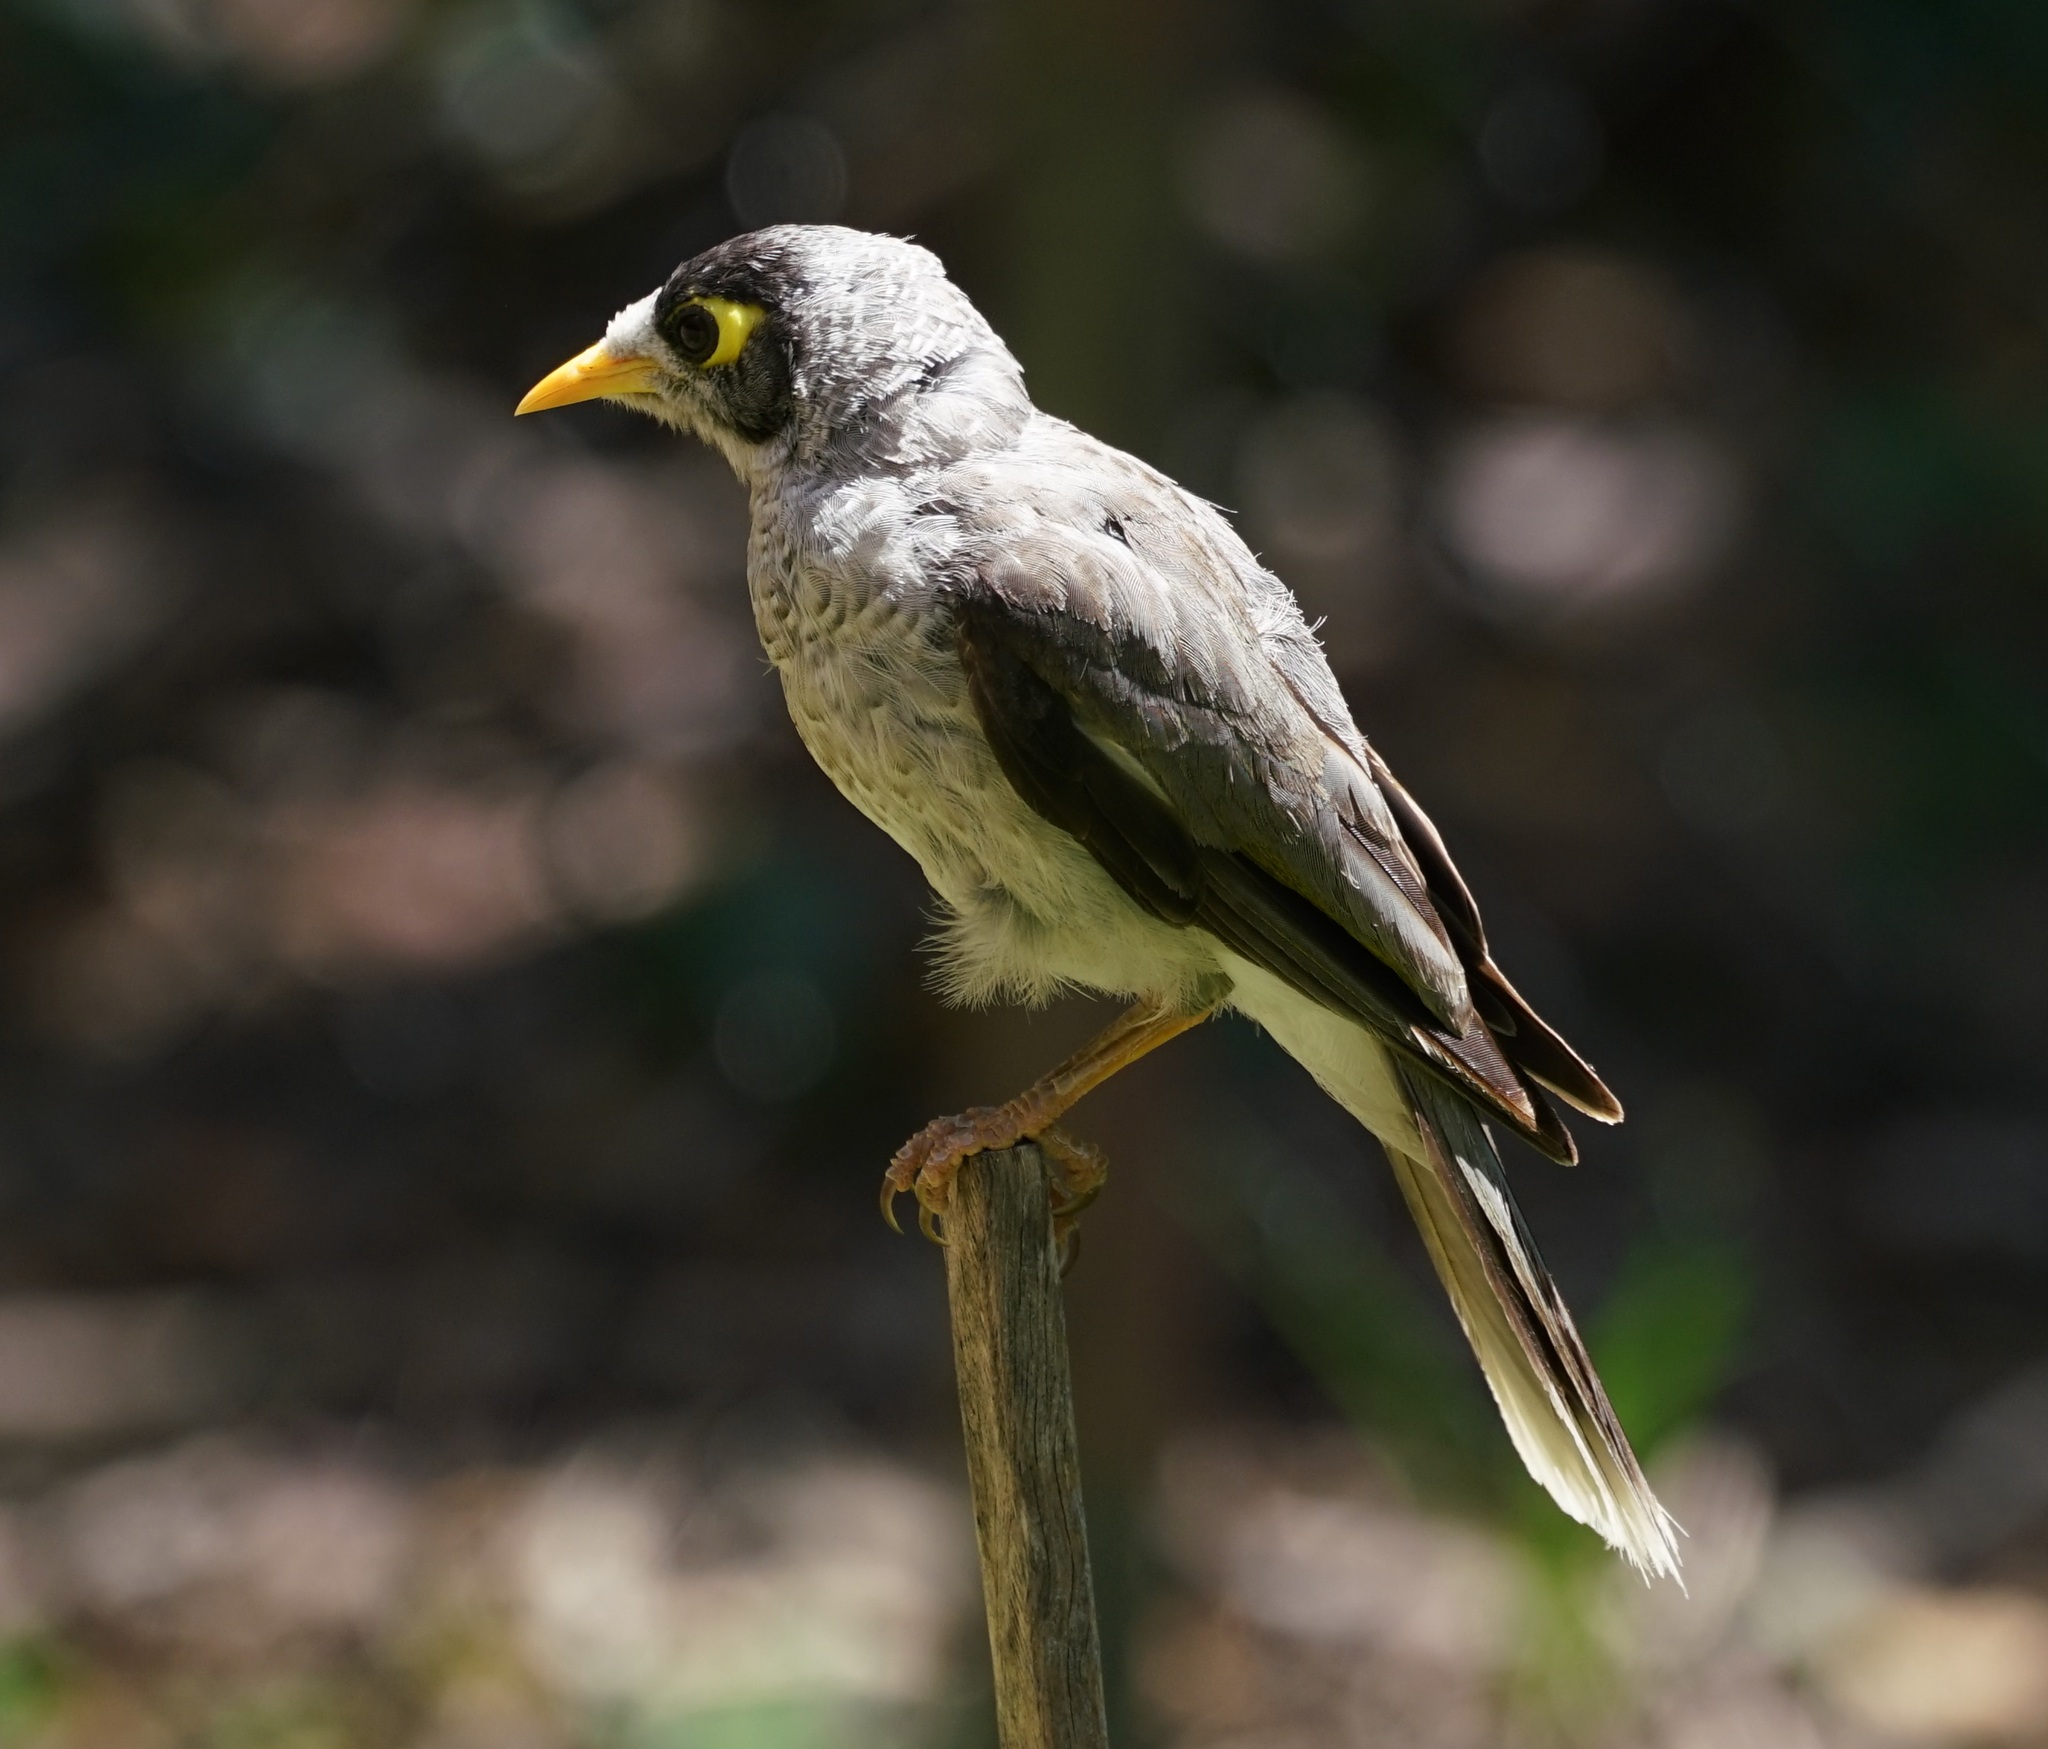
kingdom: Animalia
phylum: Chordata
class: Aves
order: Passeriformes
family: Meliphagidae
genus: Manorina
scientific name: Manorina melanocephala
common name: Noisy miner
